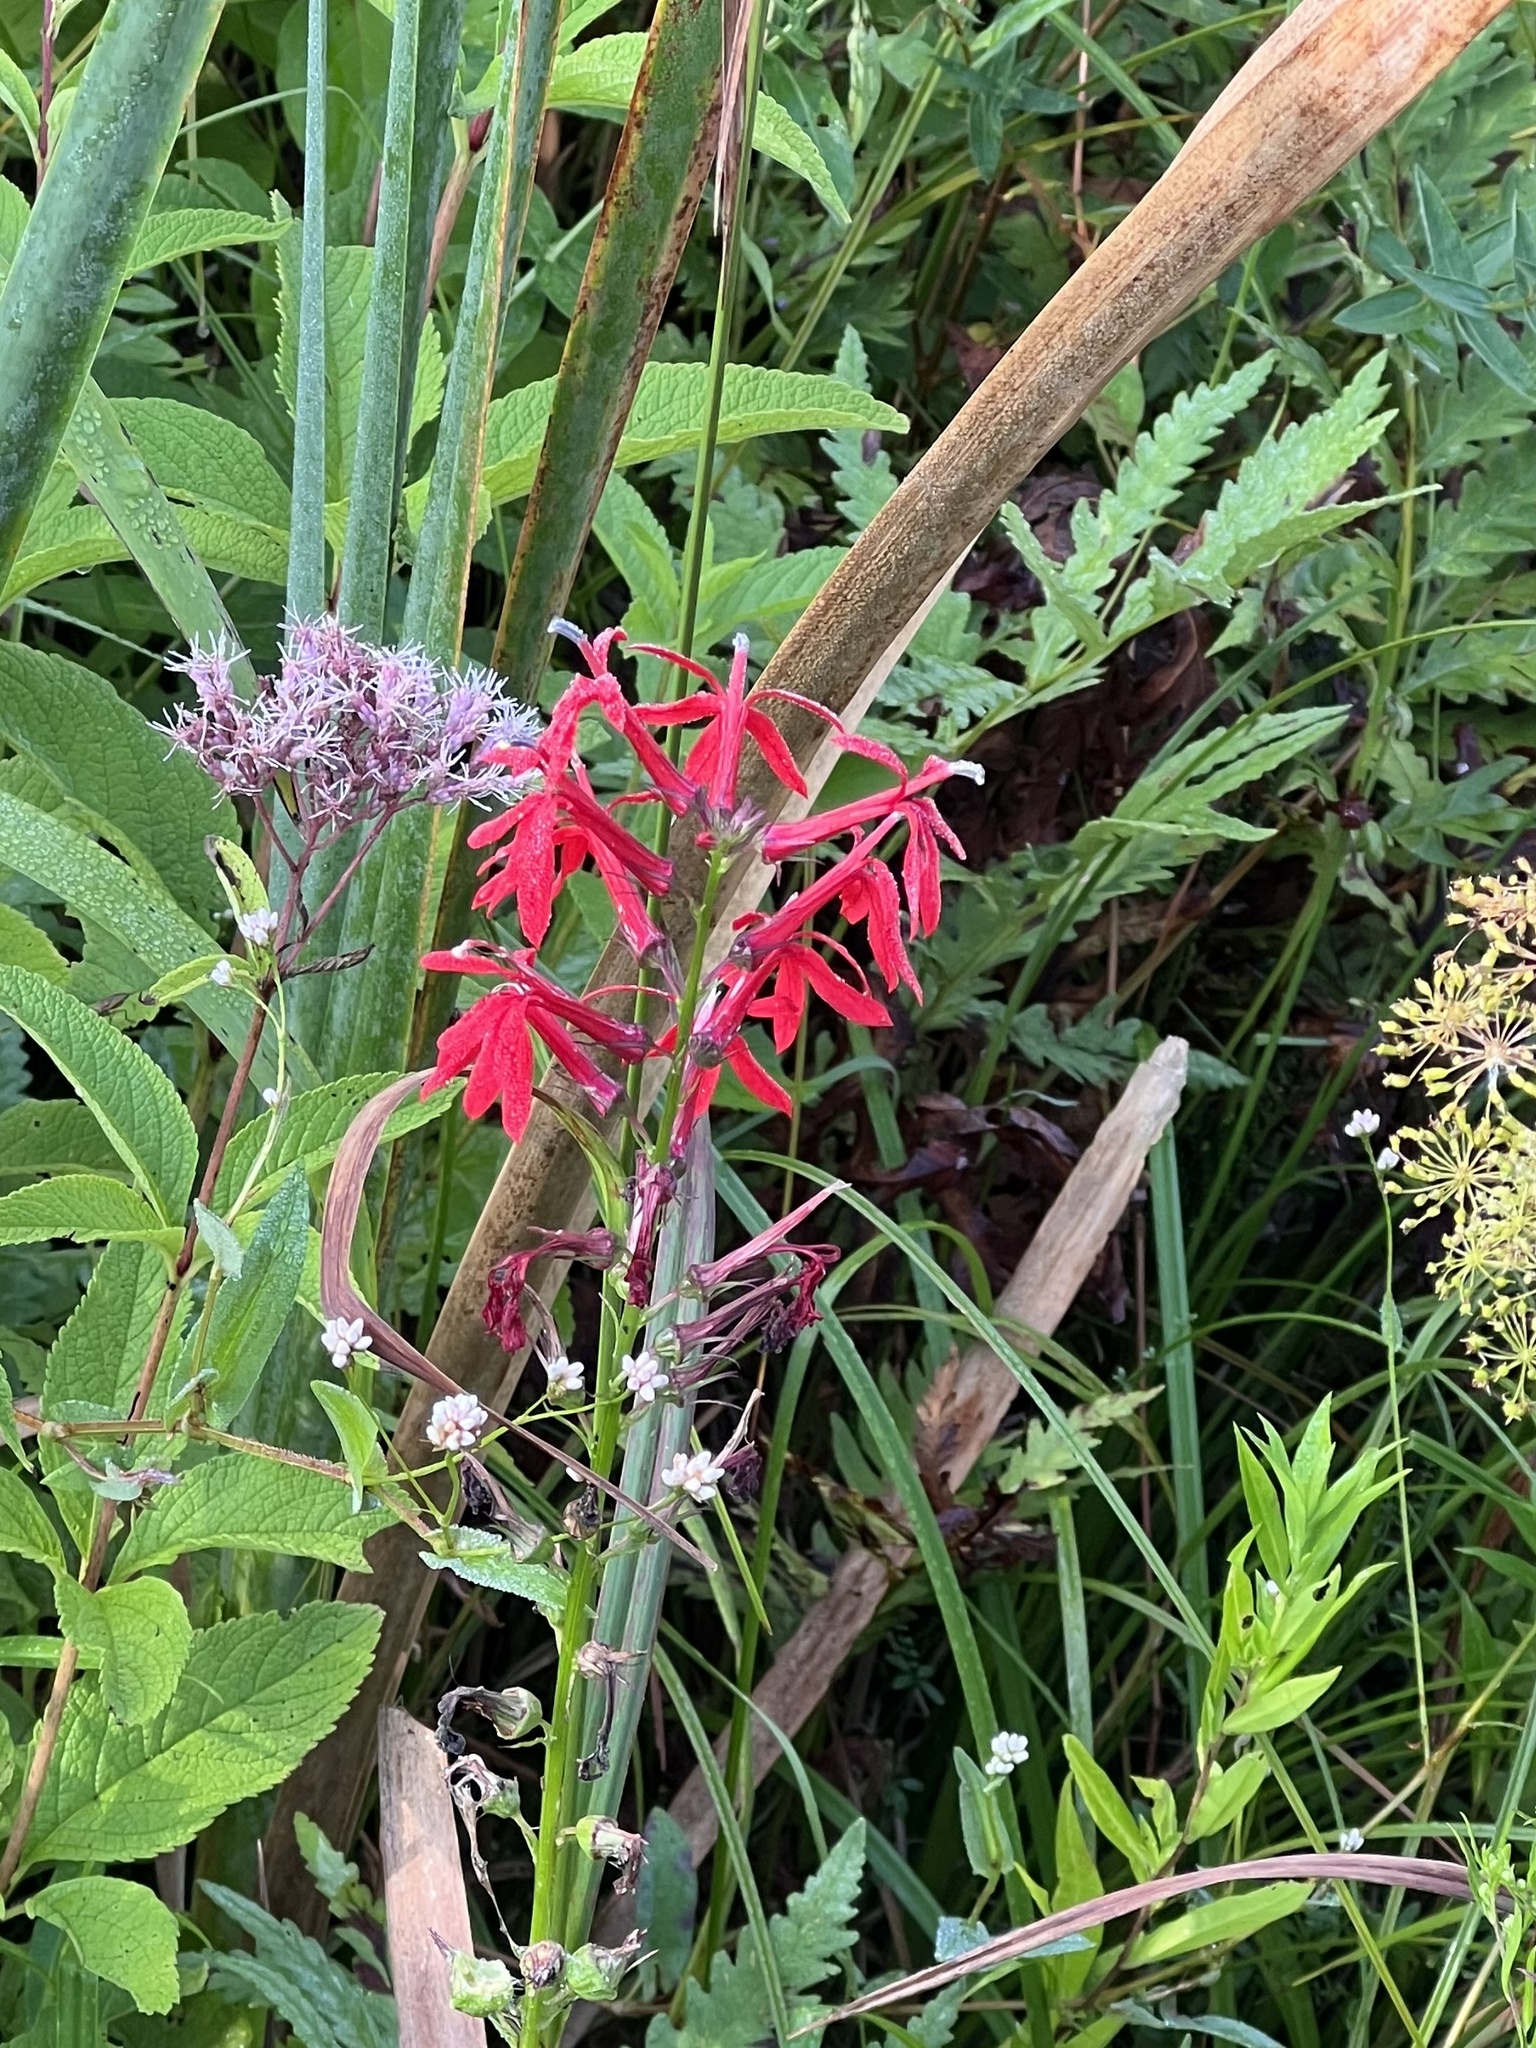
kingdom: Plantae
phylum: Tracheophyta
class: Magnoliopsida
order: Asterales
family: Campanulaceae
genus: Lobelia
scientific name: Lobelia cardinalis
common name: Cardinal flower
